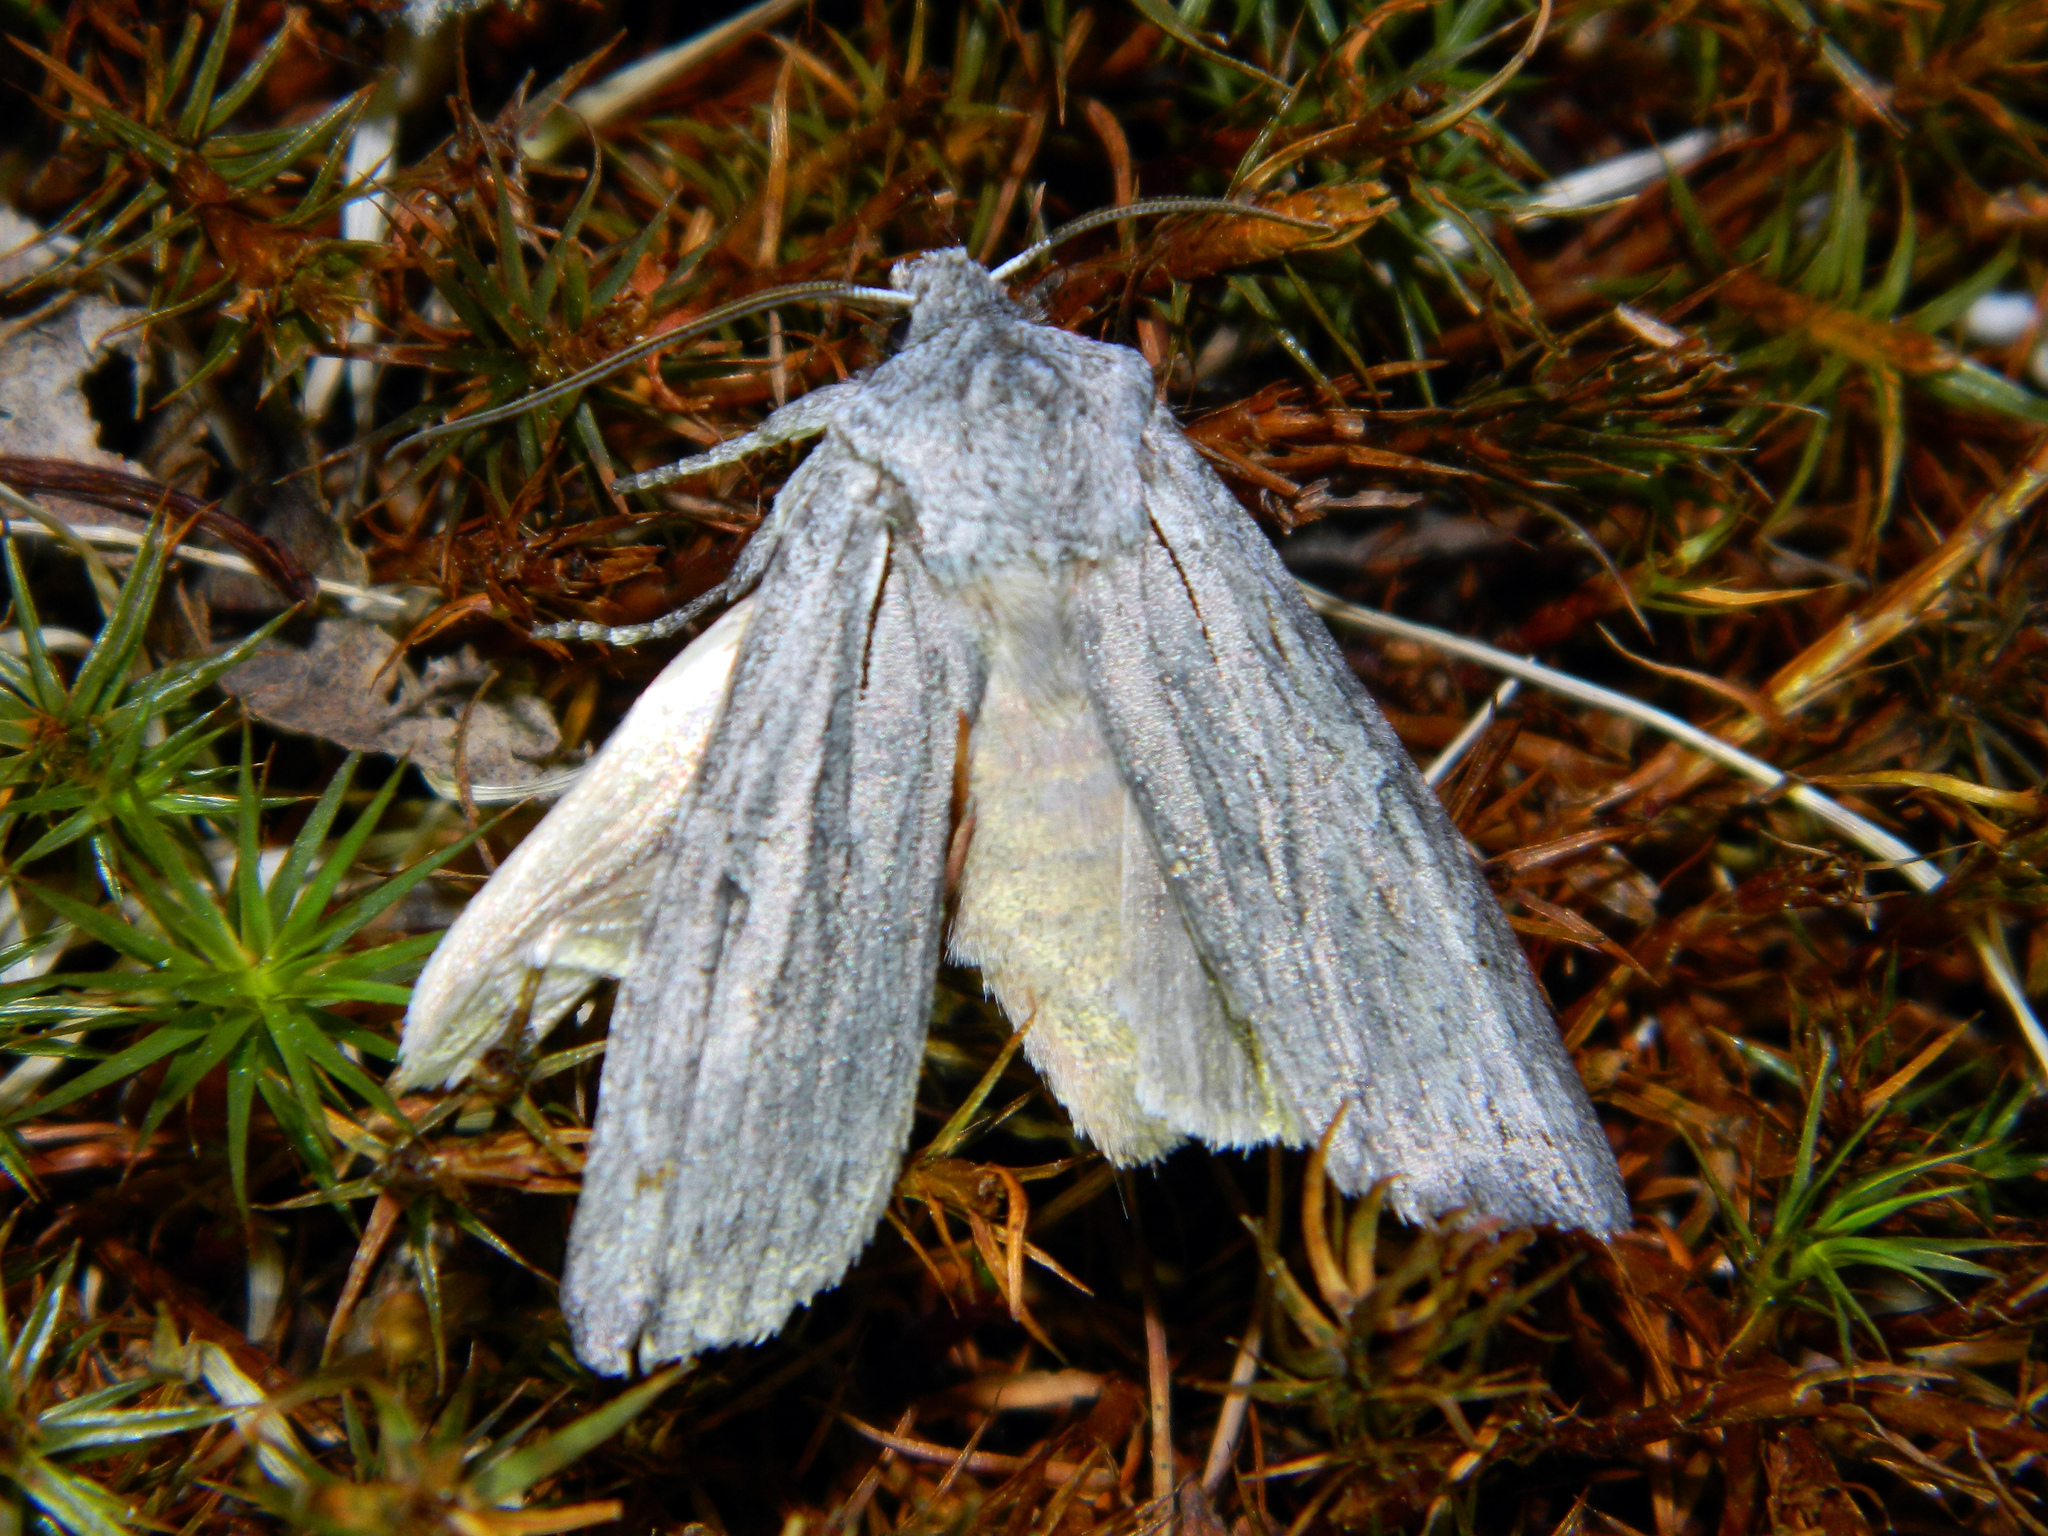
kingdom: Animalia
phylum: Arthropoda
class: Insecta
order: Lepidoptera
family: Noctuidae
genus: Lithophane
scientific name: Lithophane georgii
